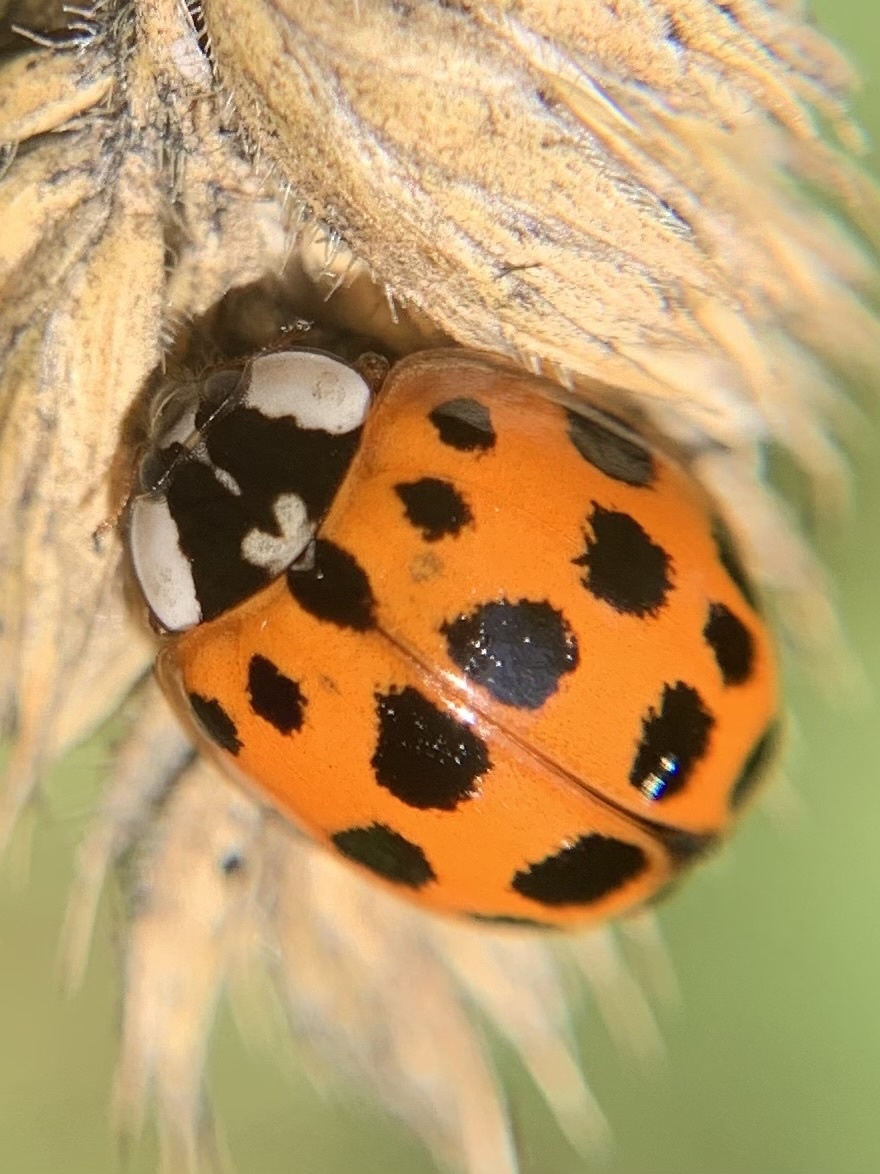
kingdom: Animalia
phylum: Arthropoda
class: Insecta
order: Coleoptera
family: Coccinellidae
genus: Harmonia
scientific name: Harmonia axyridis
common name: Harlequin ladybird
